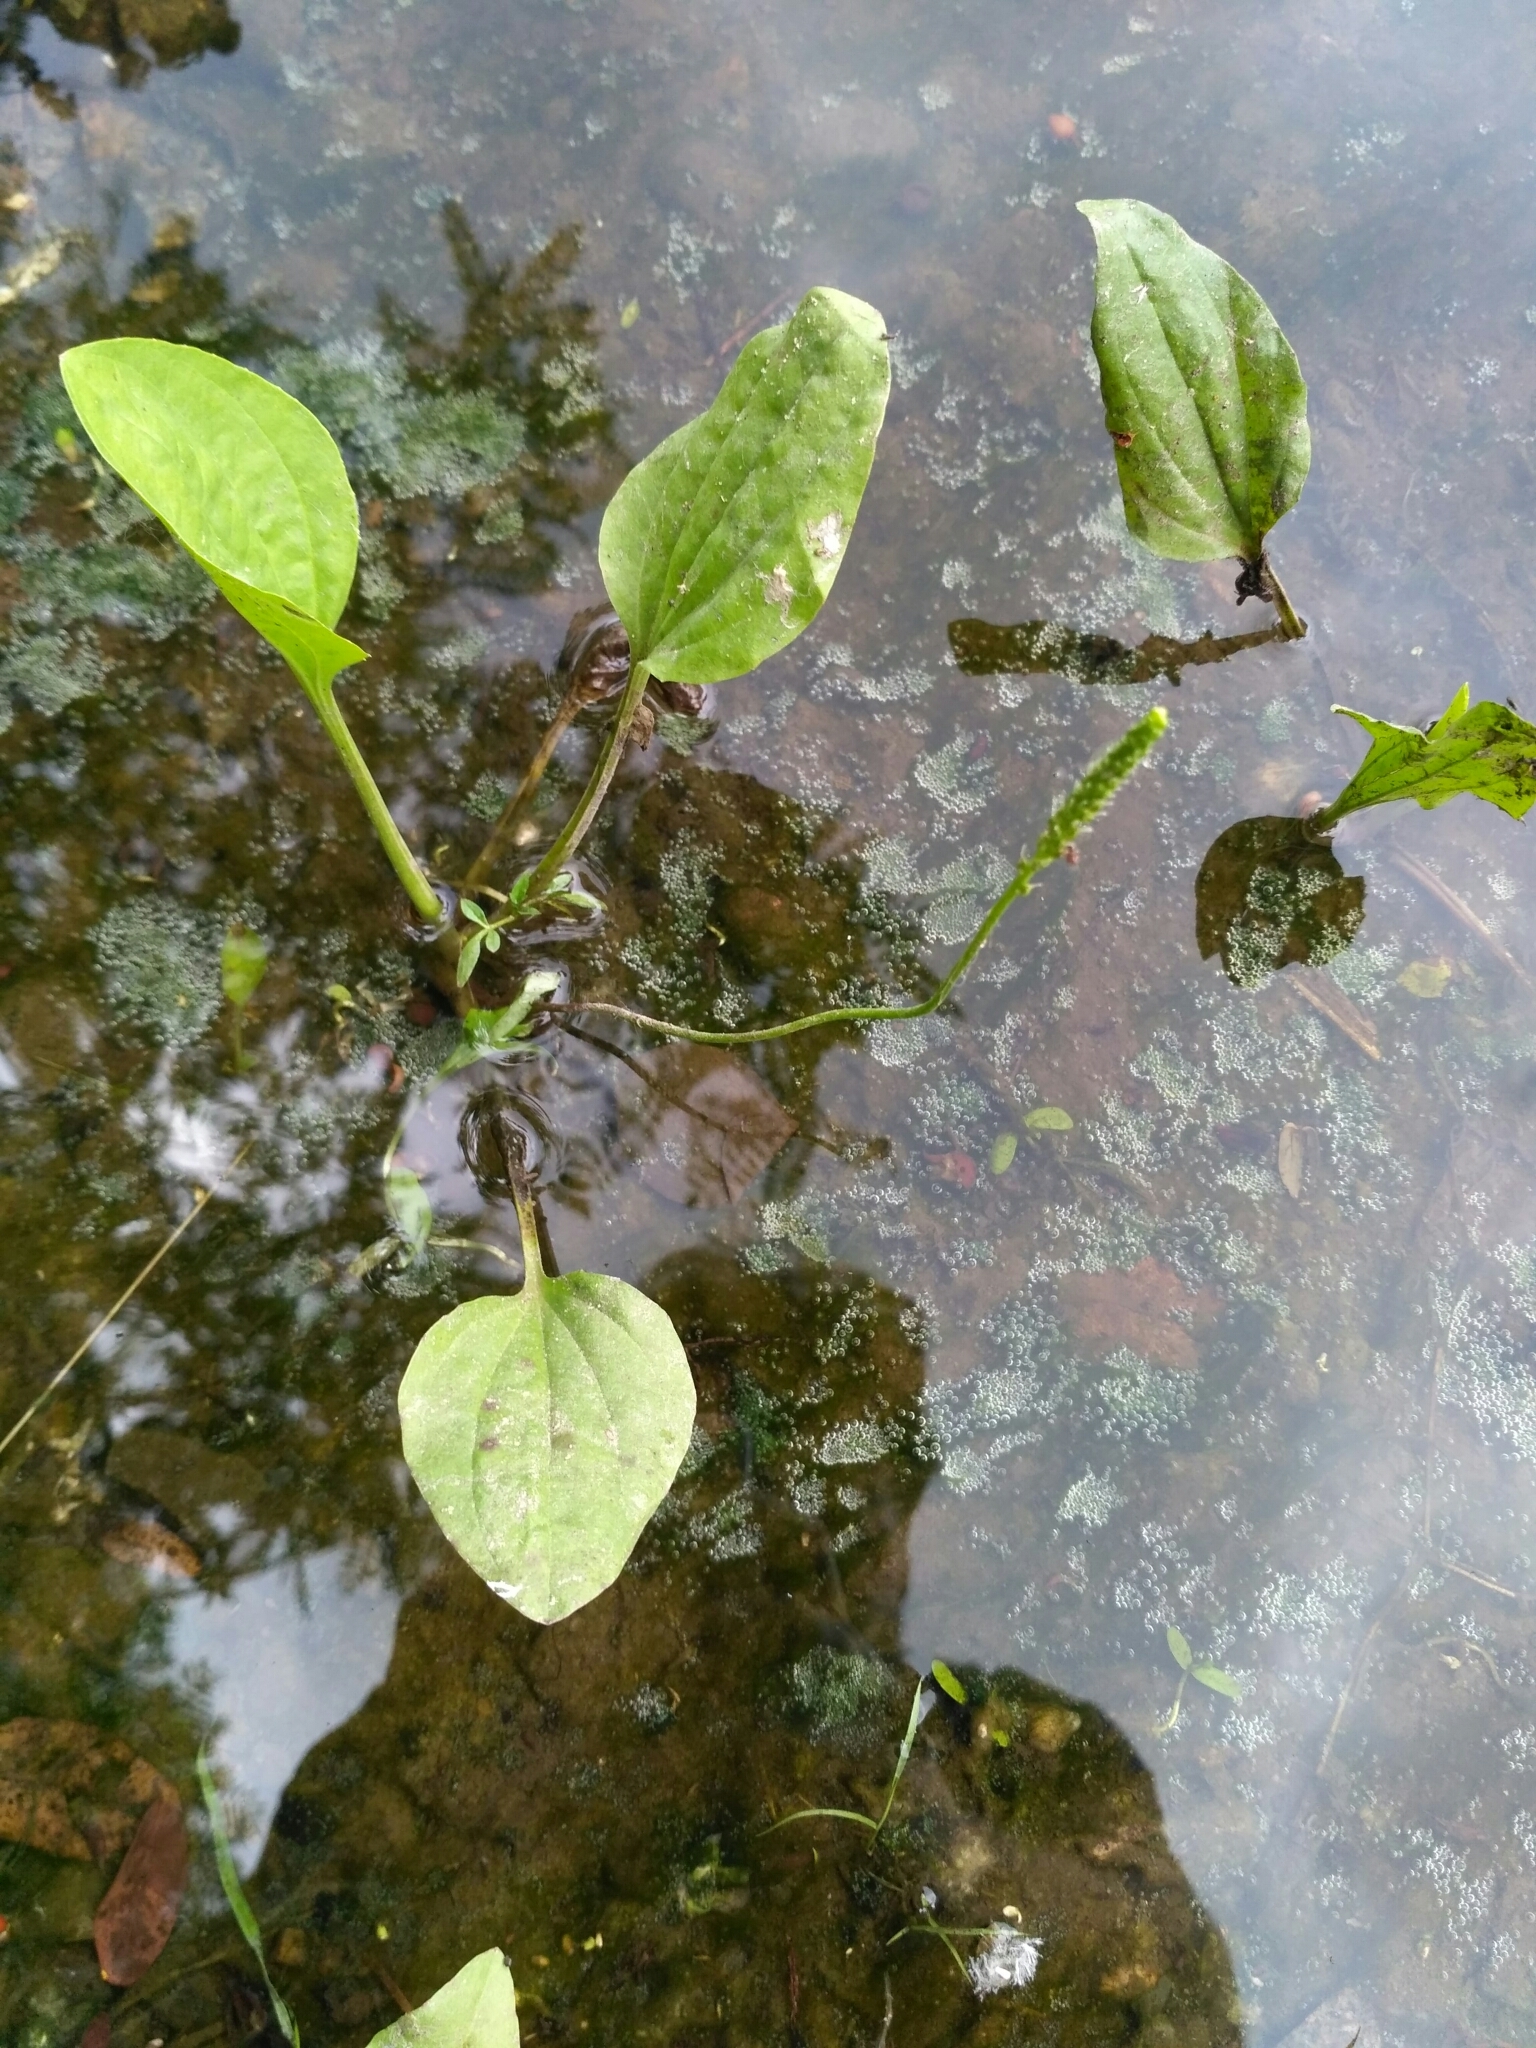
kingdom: Plantae
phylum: Tracheophyta
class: Magnoliopsida
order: Lamiales
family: Plantaginaceae
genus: Plantago
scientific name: Plantago major
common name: Common plantain
